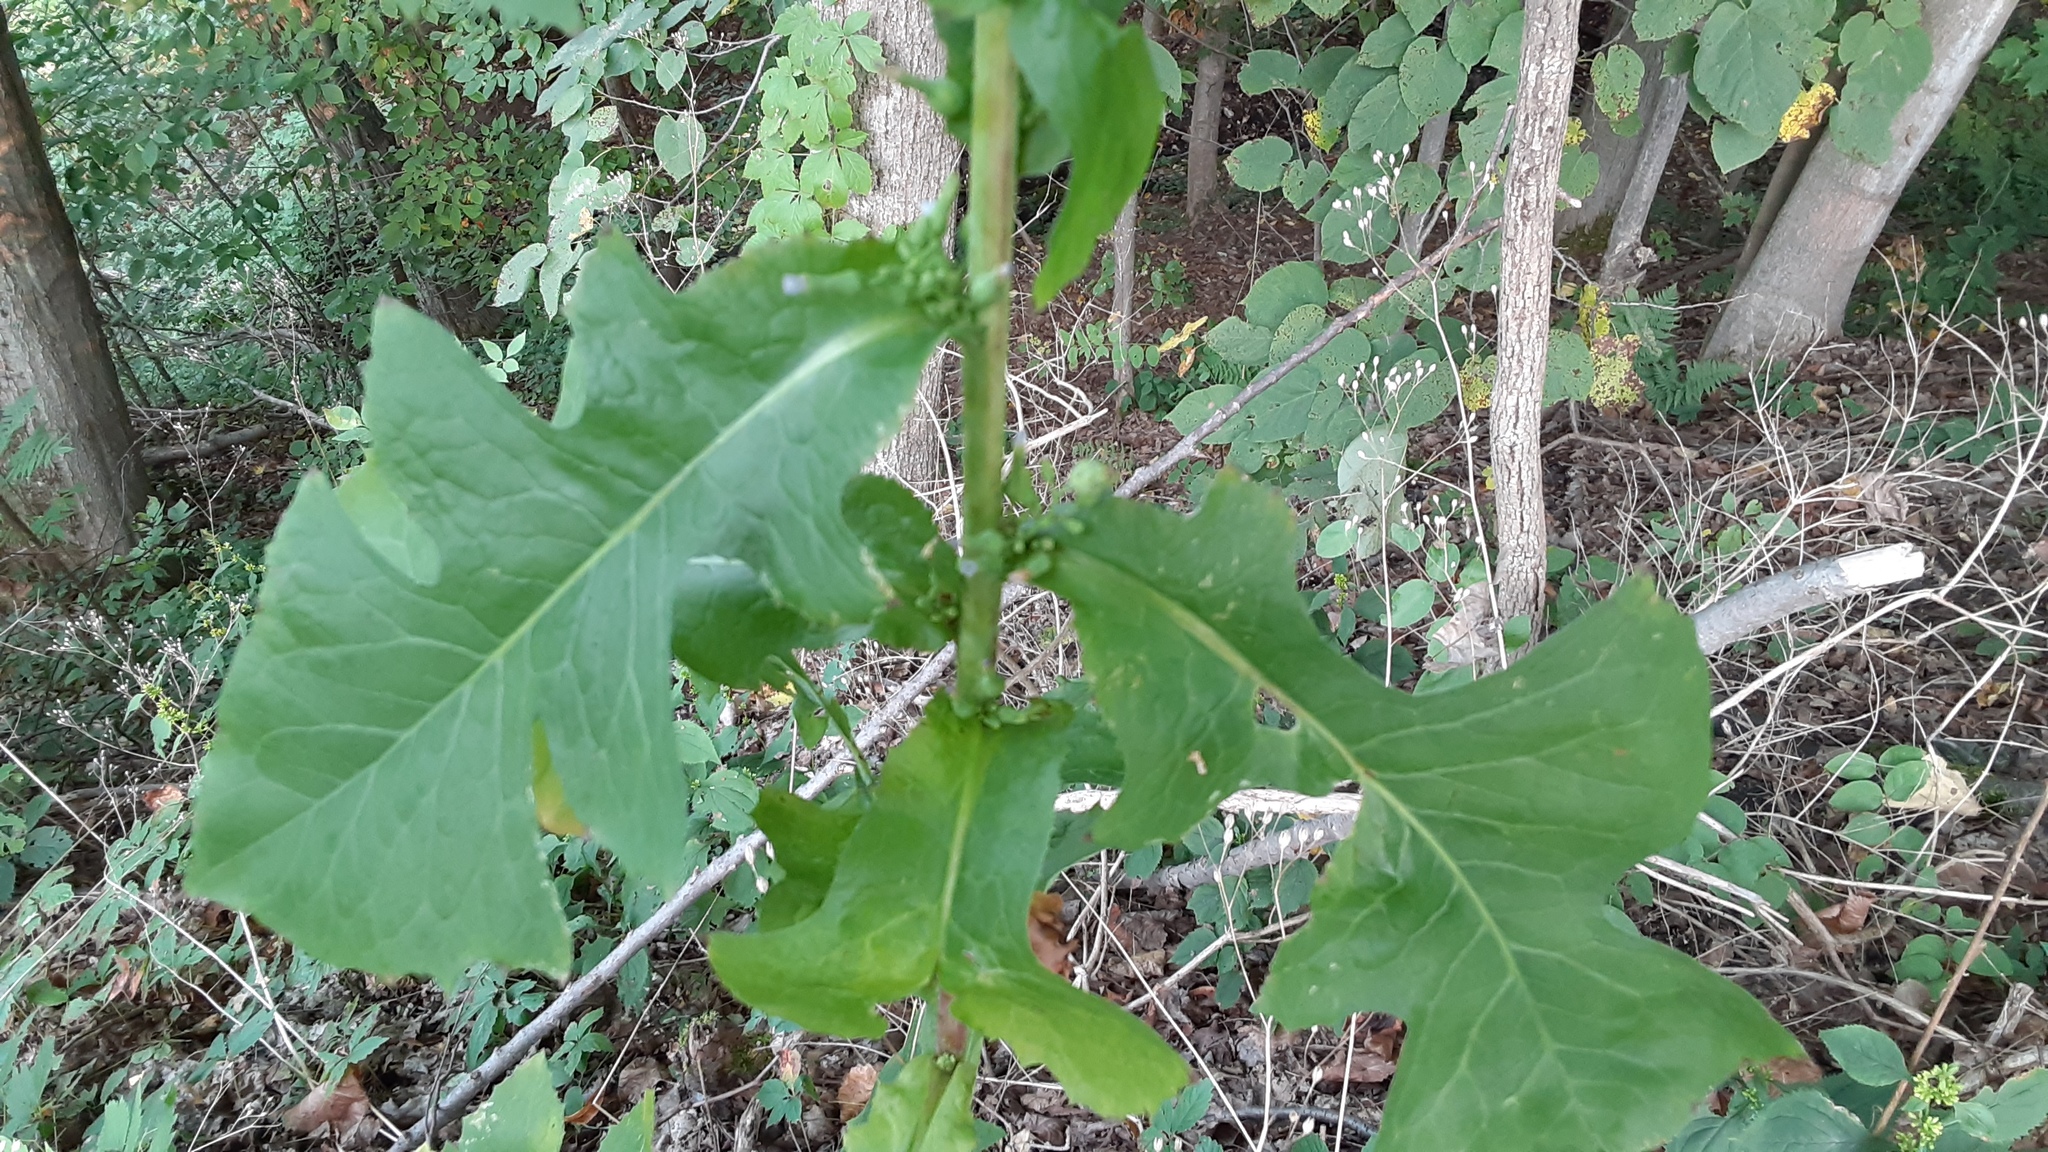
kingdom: Plantae
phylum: Tracheophyta
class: Magnoliopsida
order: Asterales
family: Asteraceae
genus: Lactuca
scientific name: Lactuca biennis
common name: Blue wood lettuce
